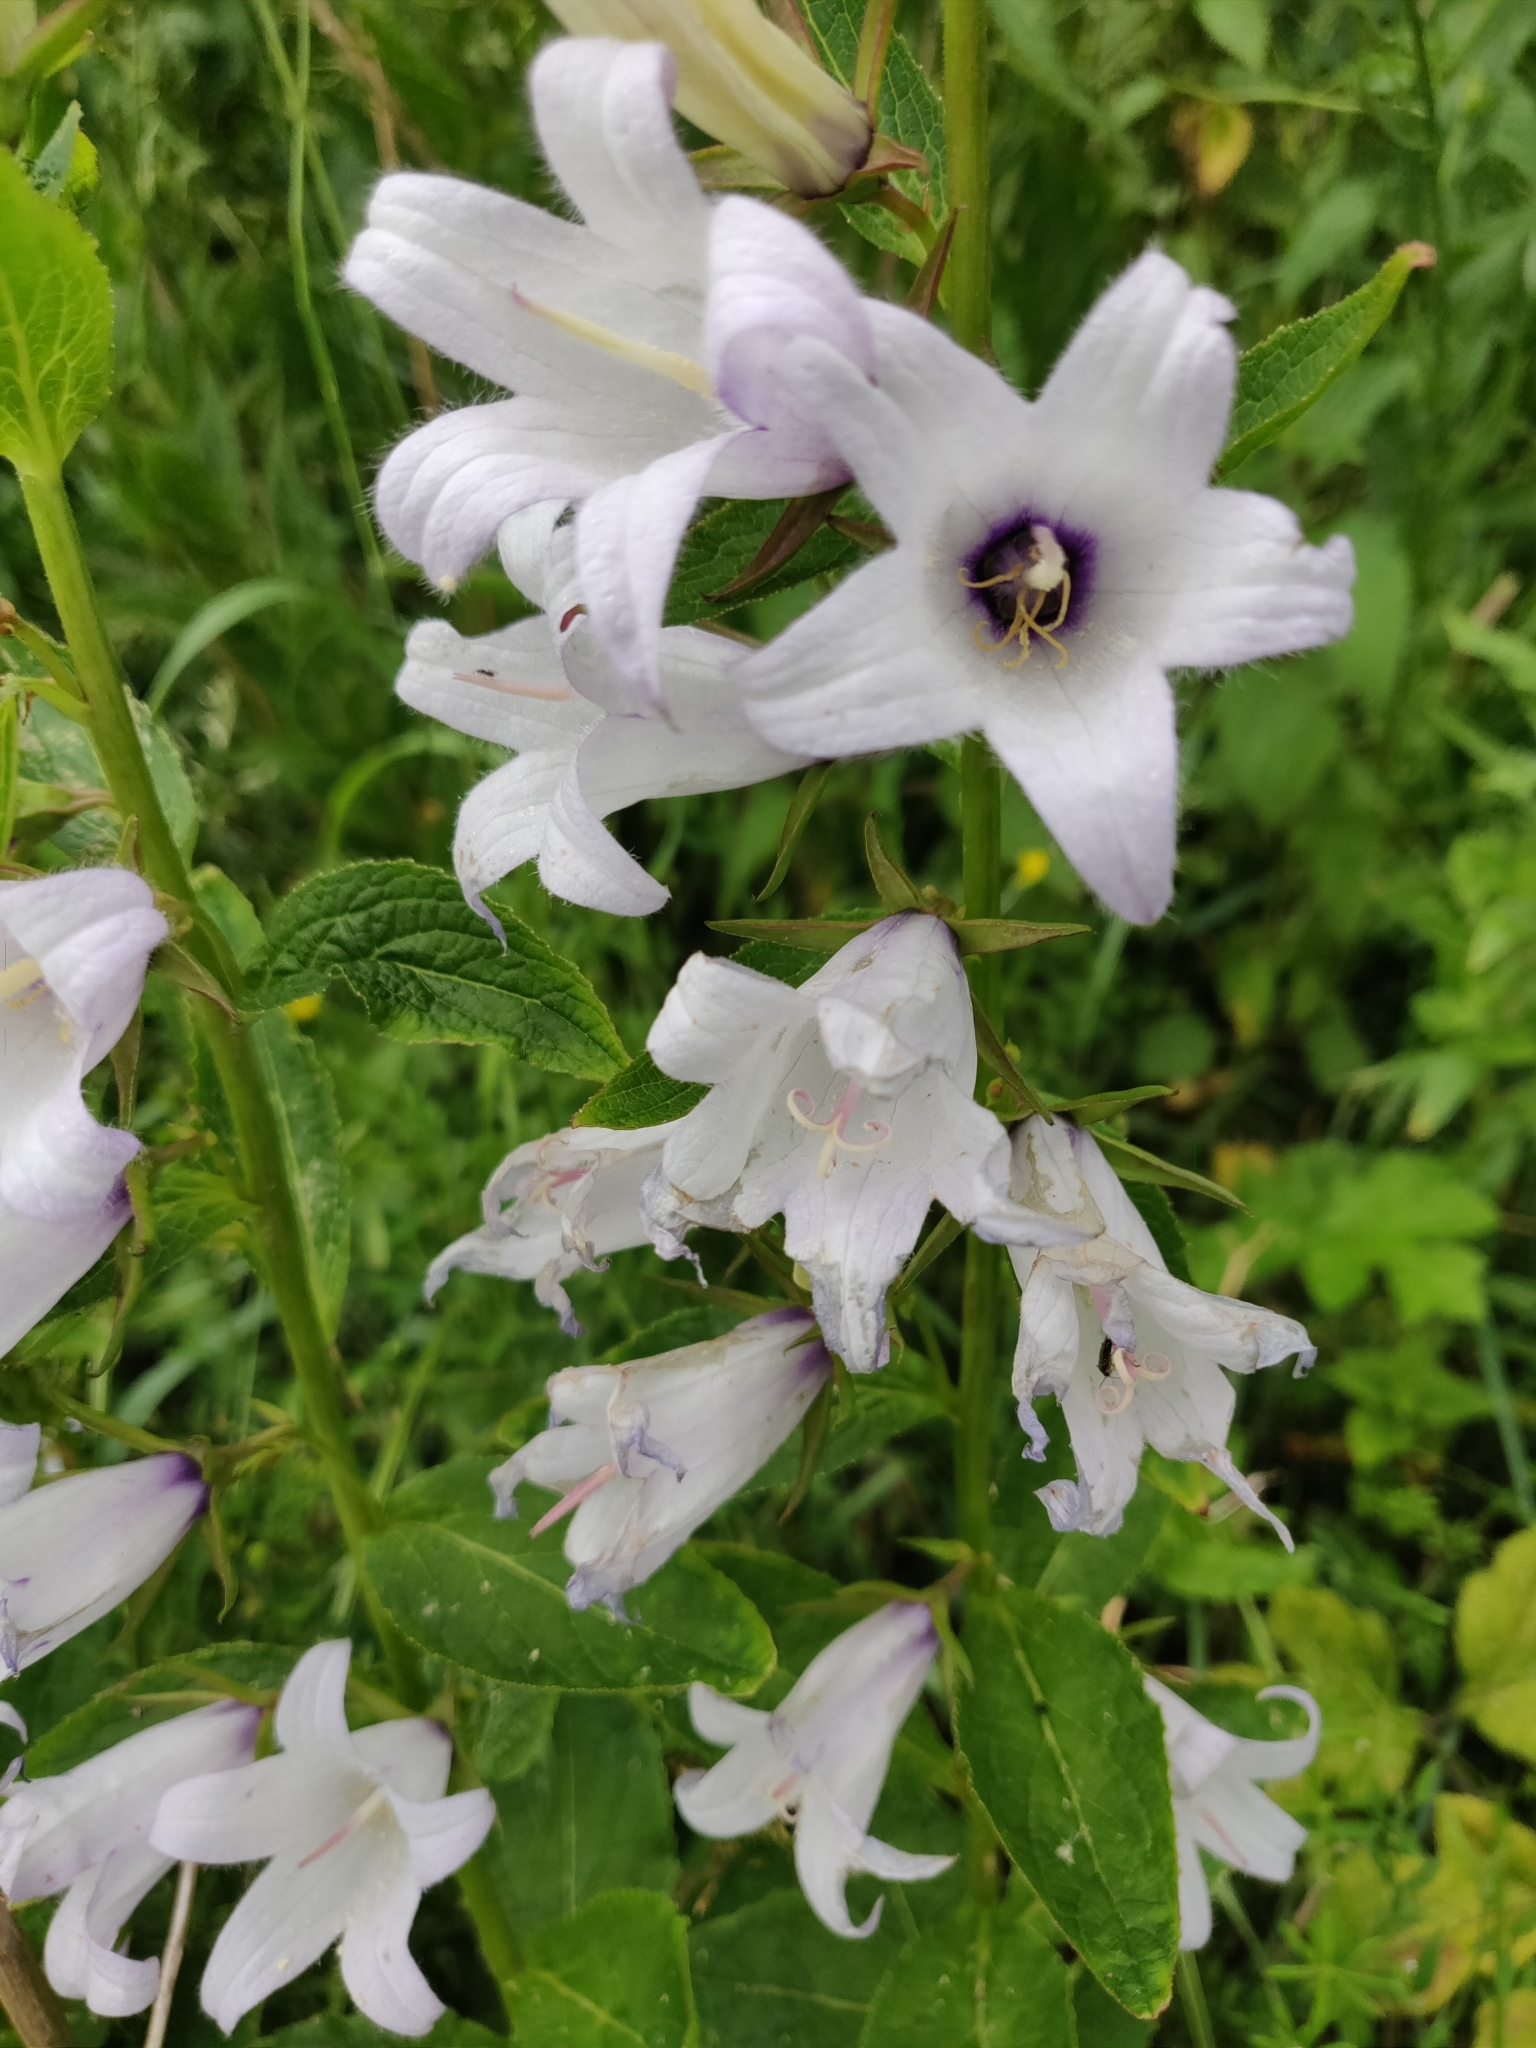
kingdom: Plantae
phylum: Tracheophyta
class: Magnoliopsida
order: Asterales
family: Campanulaceae
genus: Campanula
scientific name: Campanula latifolia
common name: Giant bellflower
